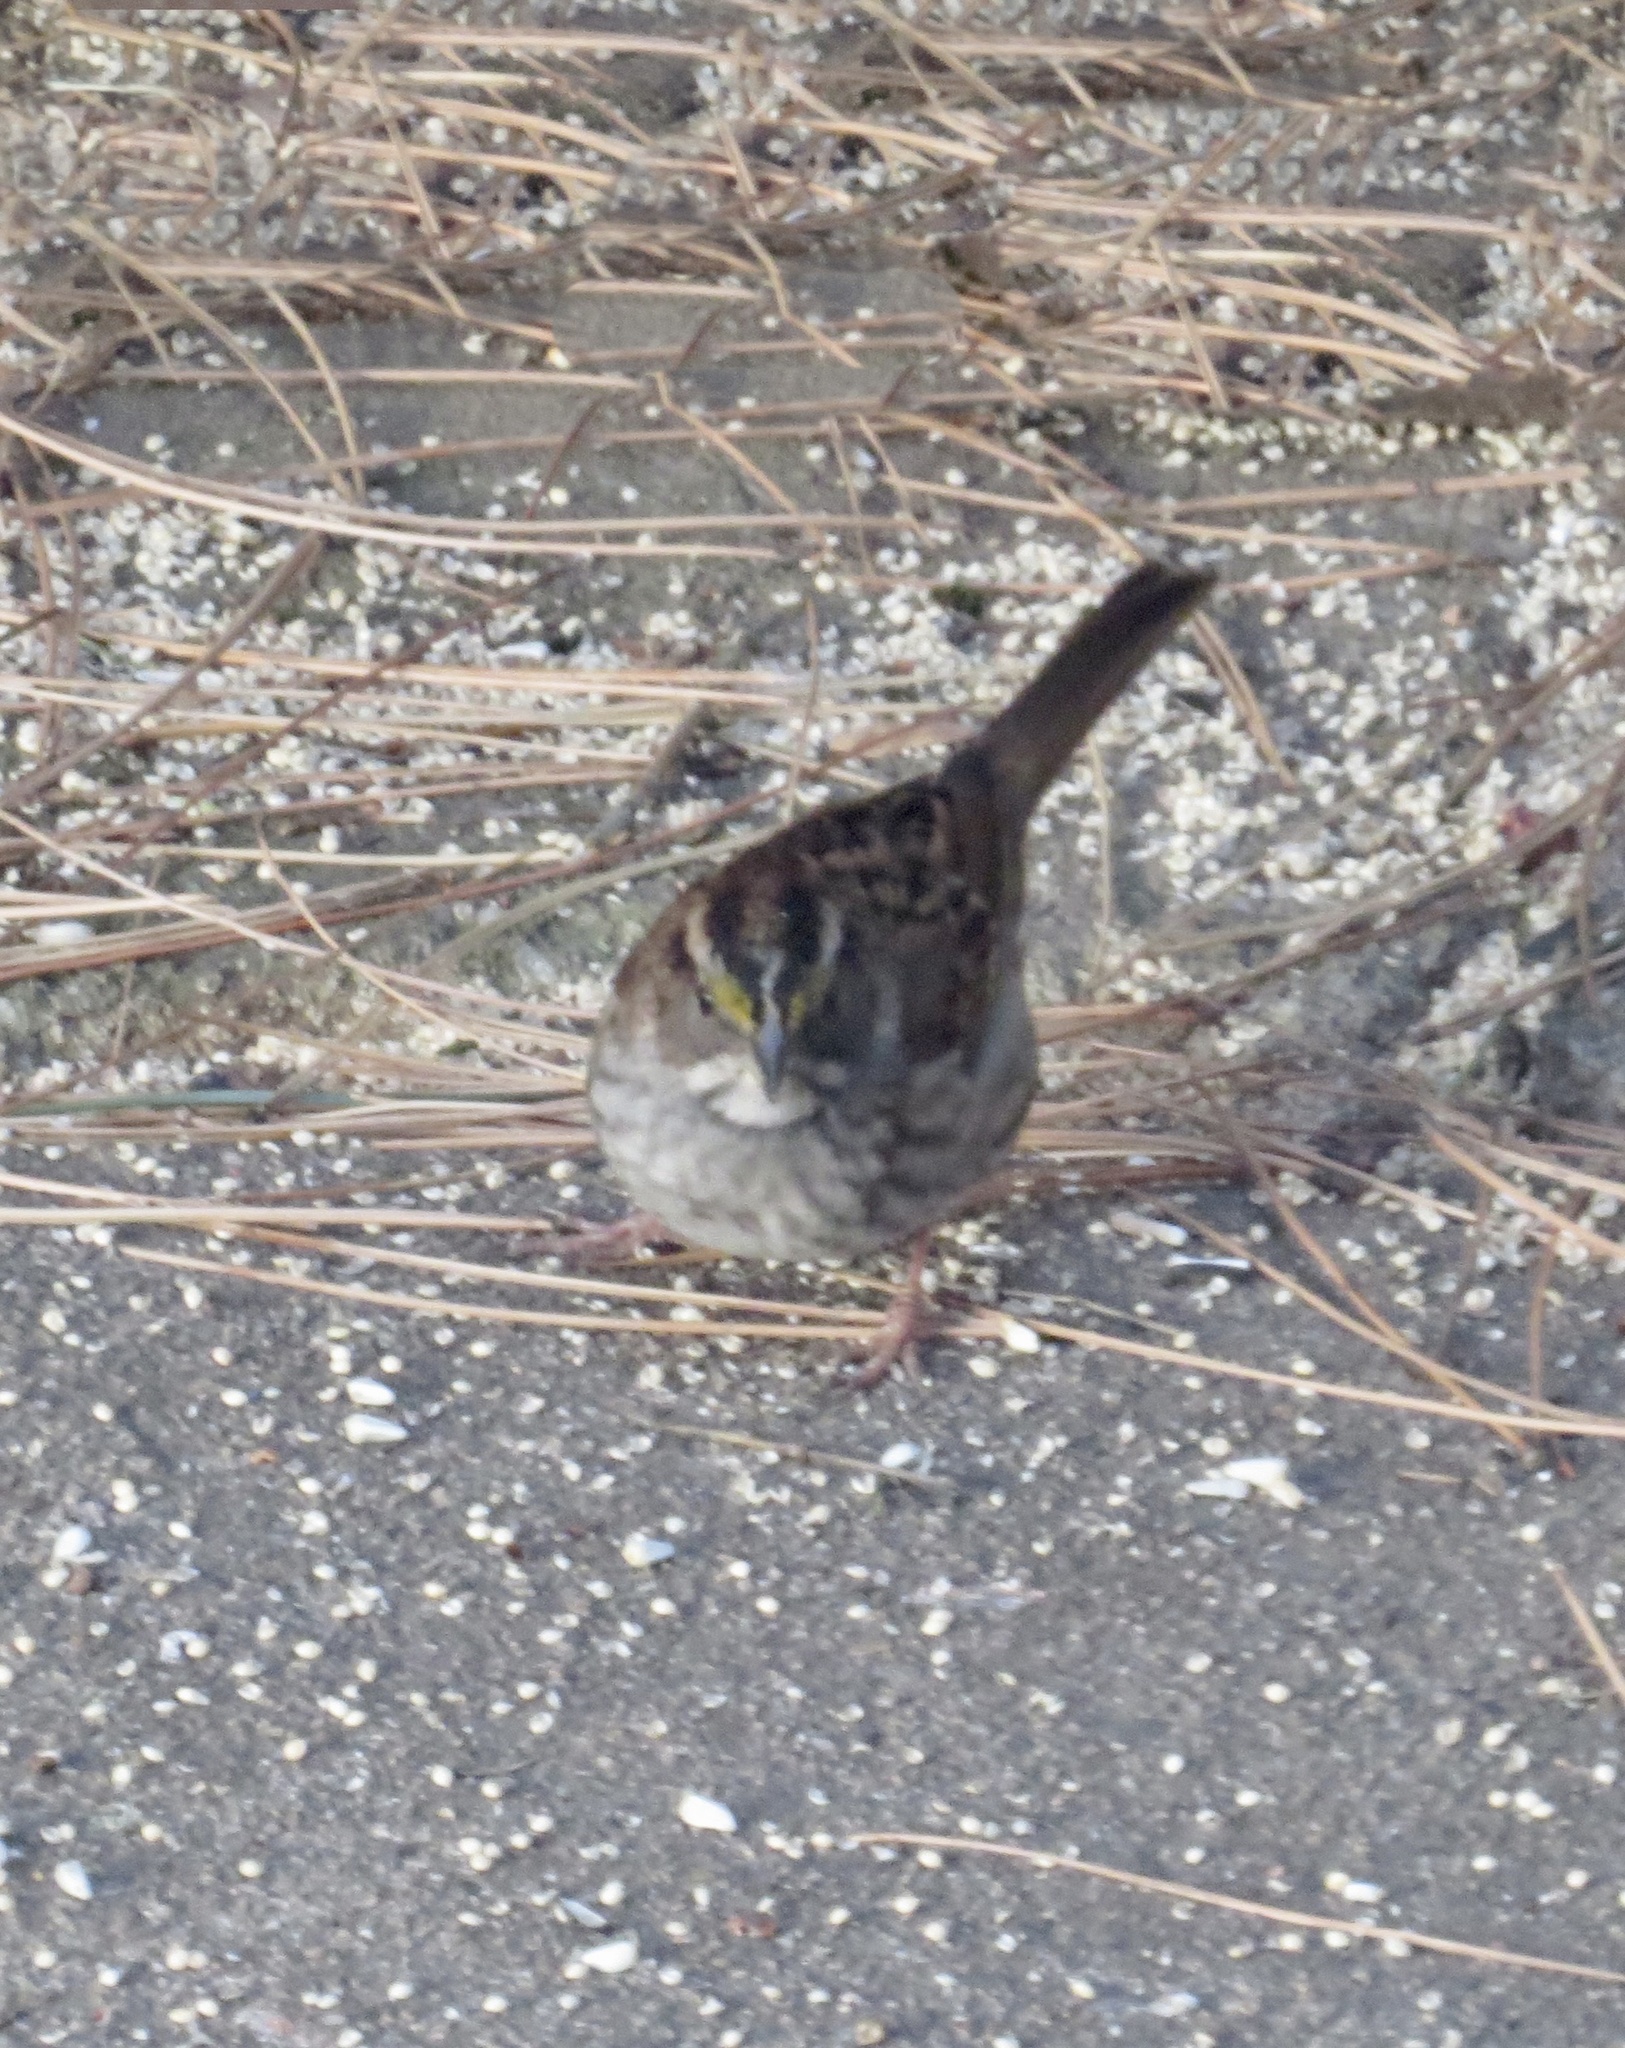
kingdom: Animalia
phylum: Chordata
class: Aves
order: Passeriformes
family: Passerellidae
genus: Zonotrichia
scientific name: Zonotrichia albicollis
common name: White-throated sparrow
